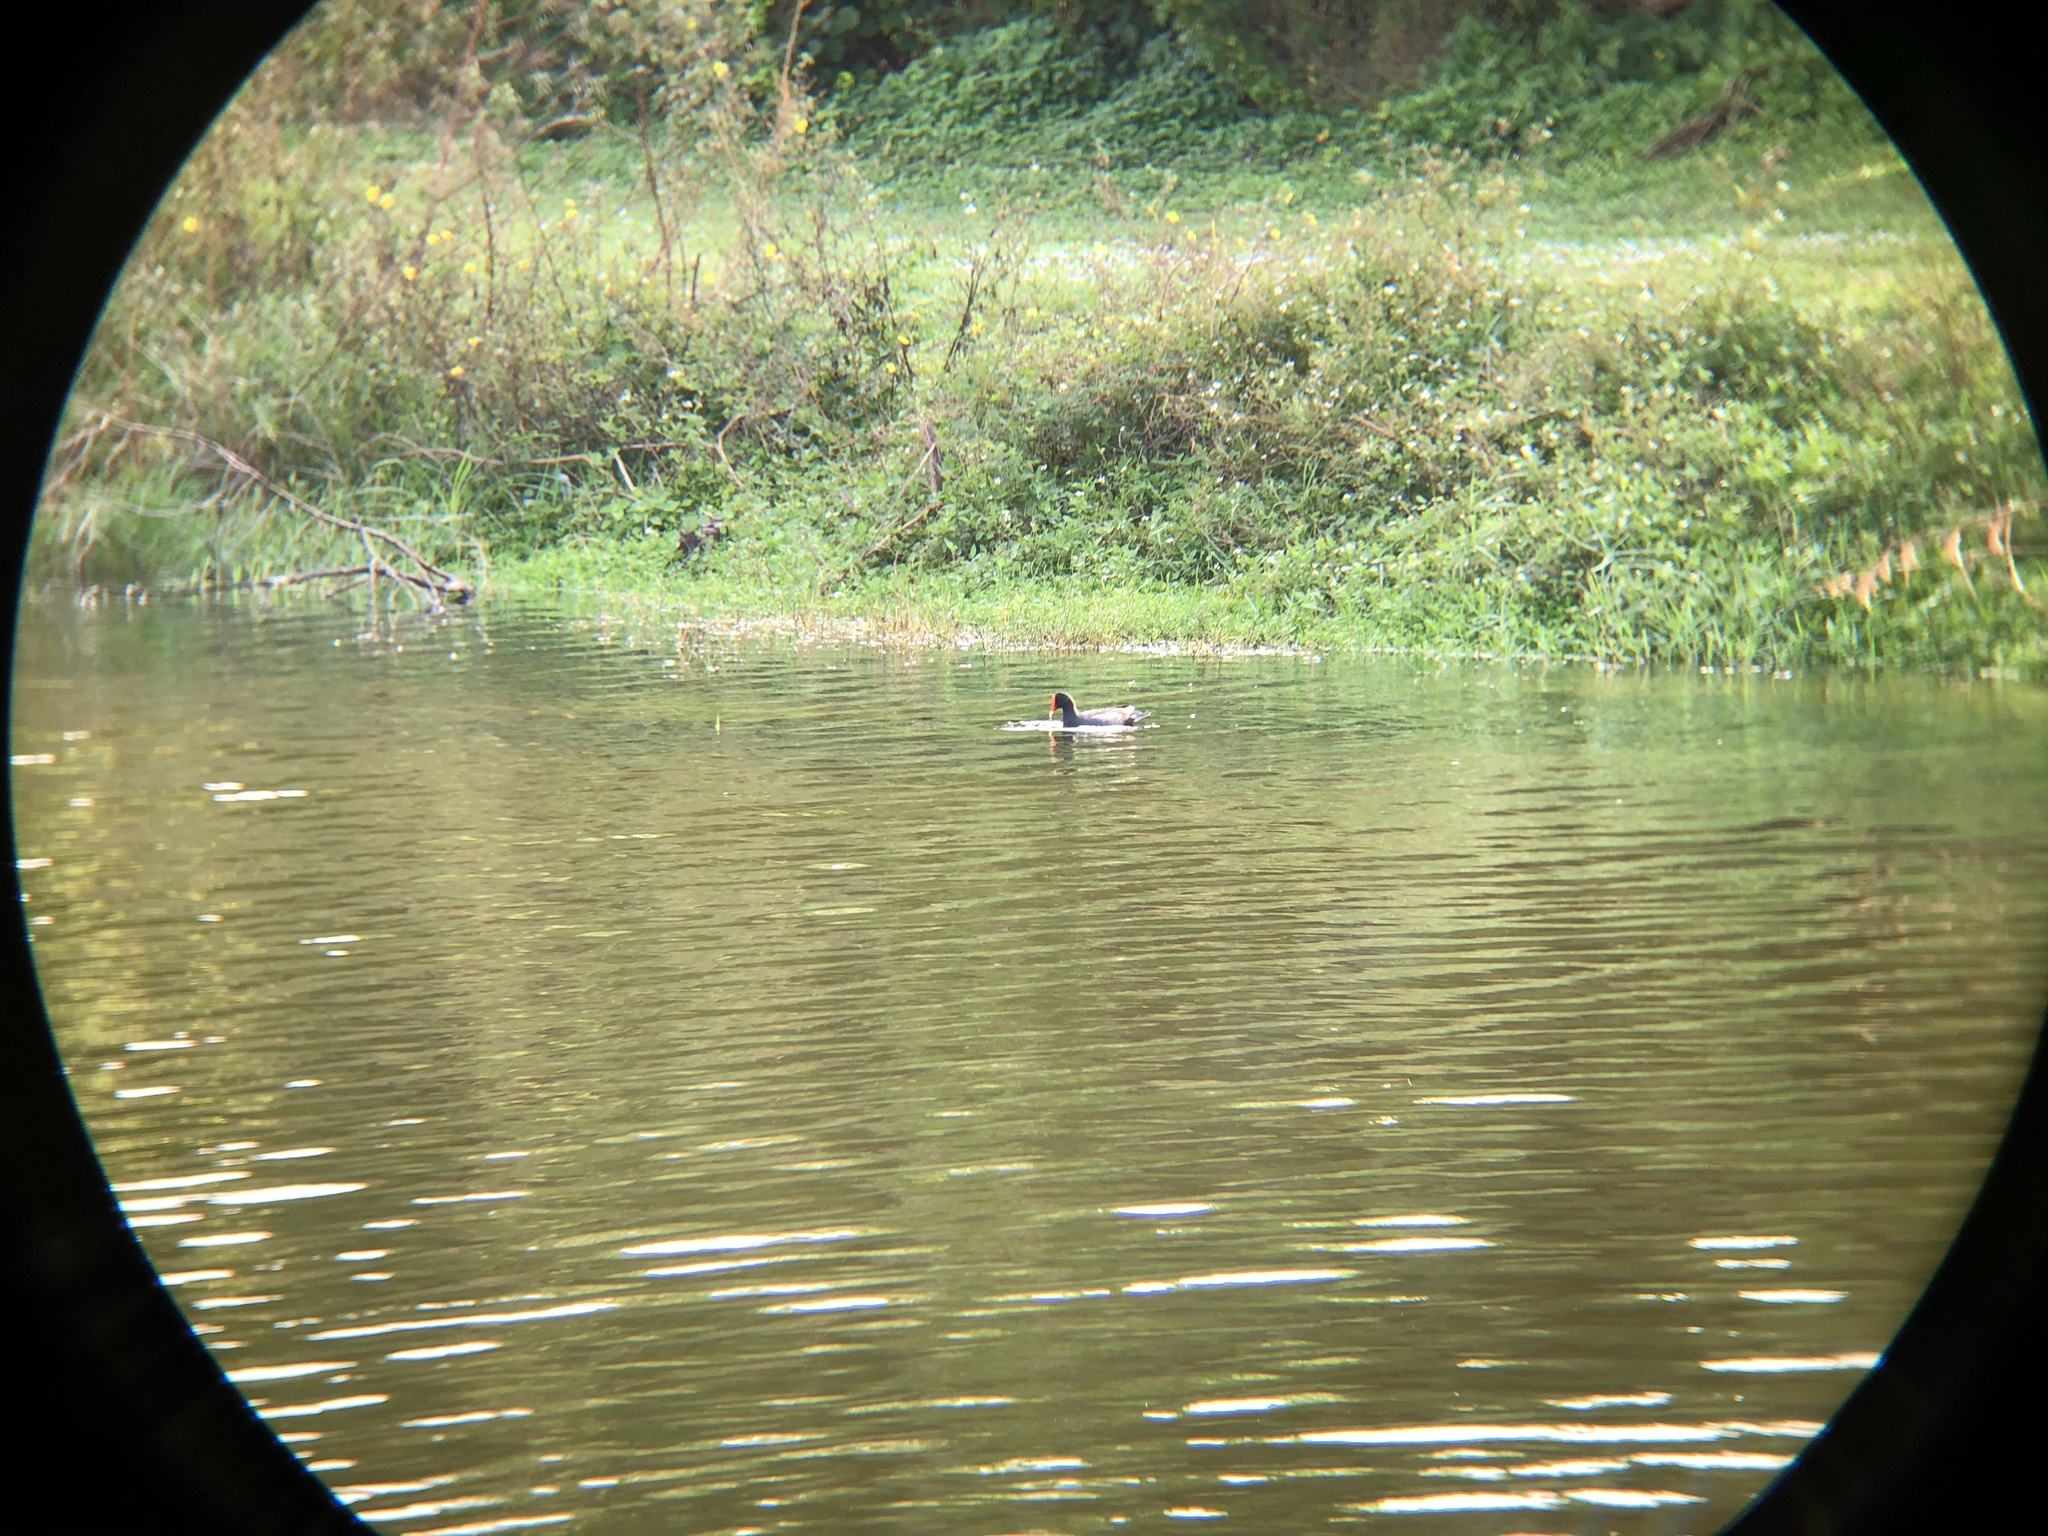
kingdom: Animalia
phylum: Chordata
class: Aves
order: Gruiformes
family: Rallidae
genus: Gallinula
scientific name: Gallinula chloropus
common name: Common moorhen
